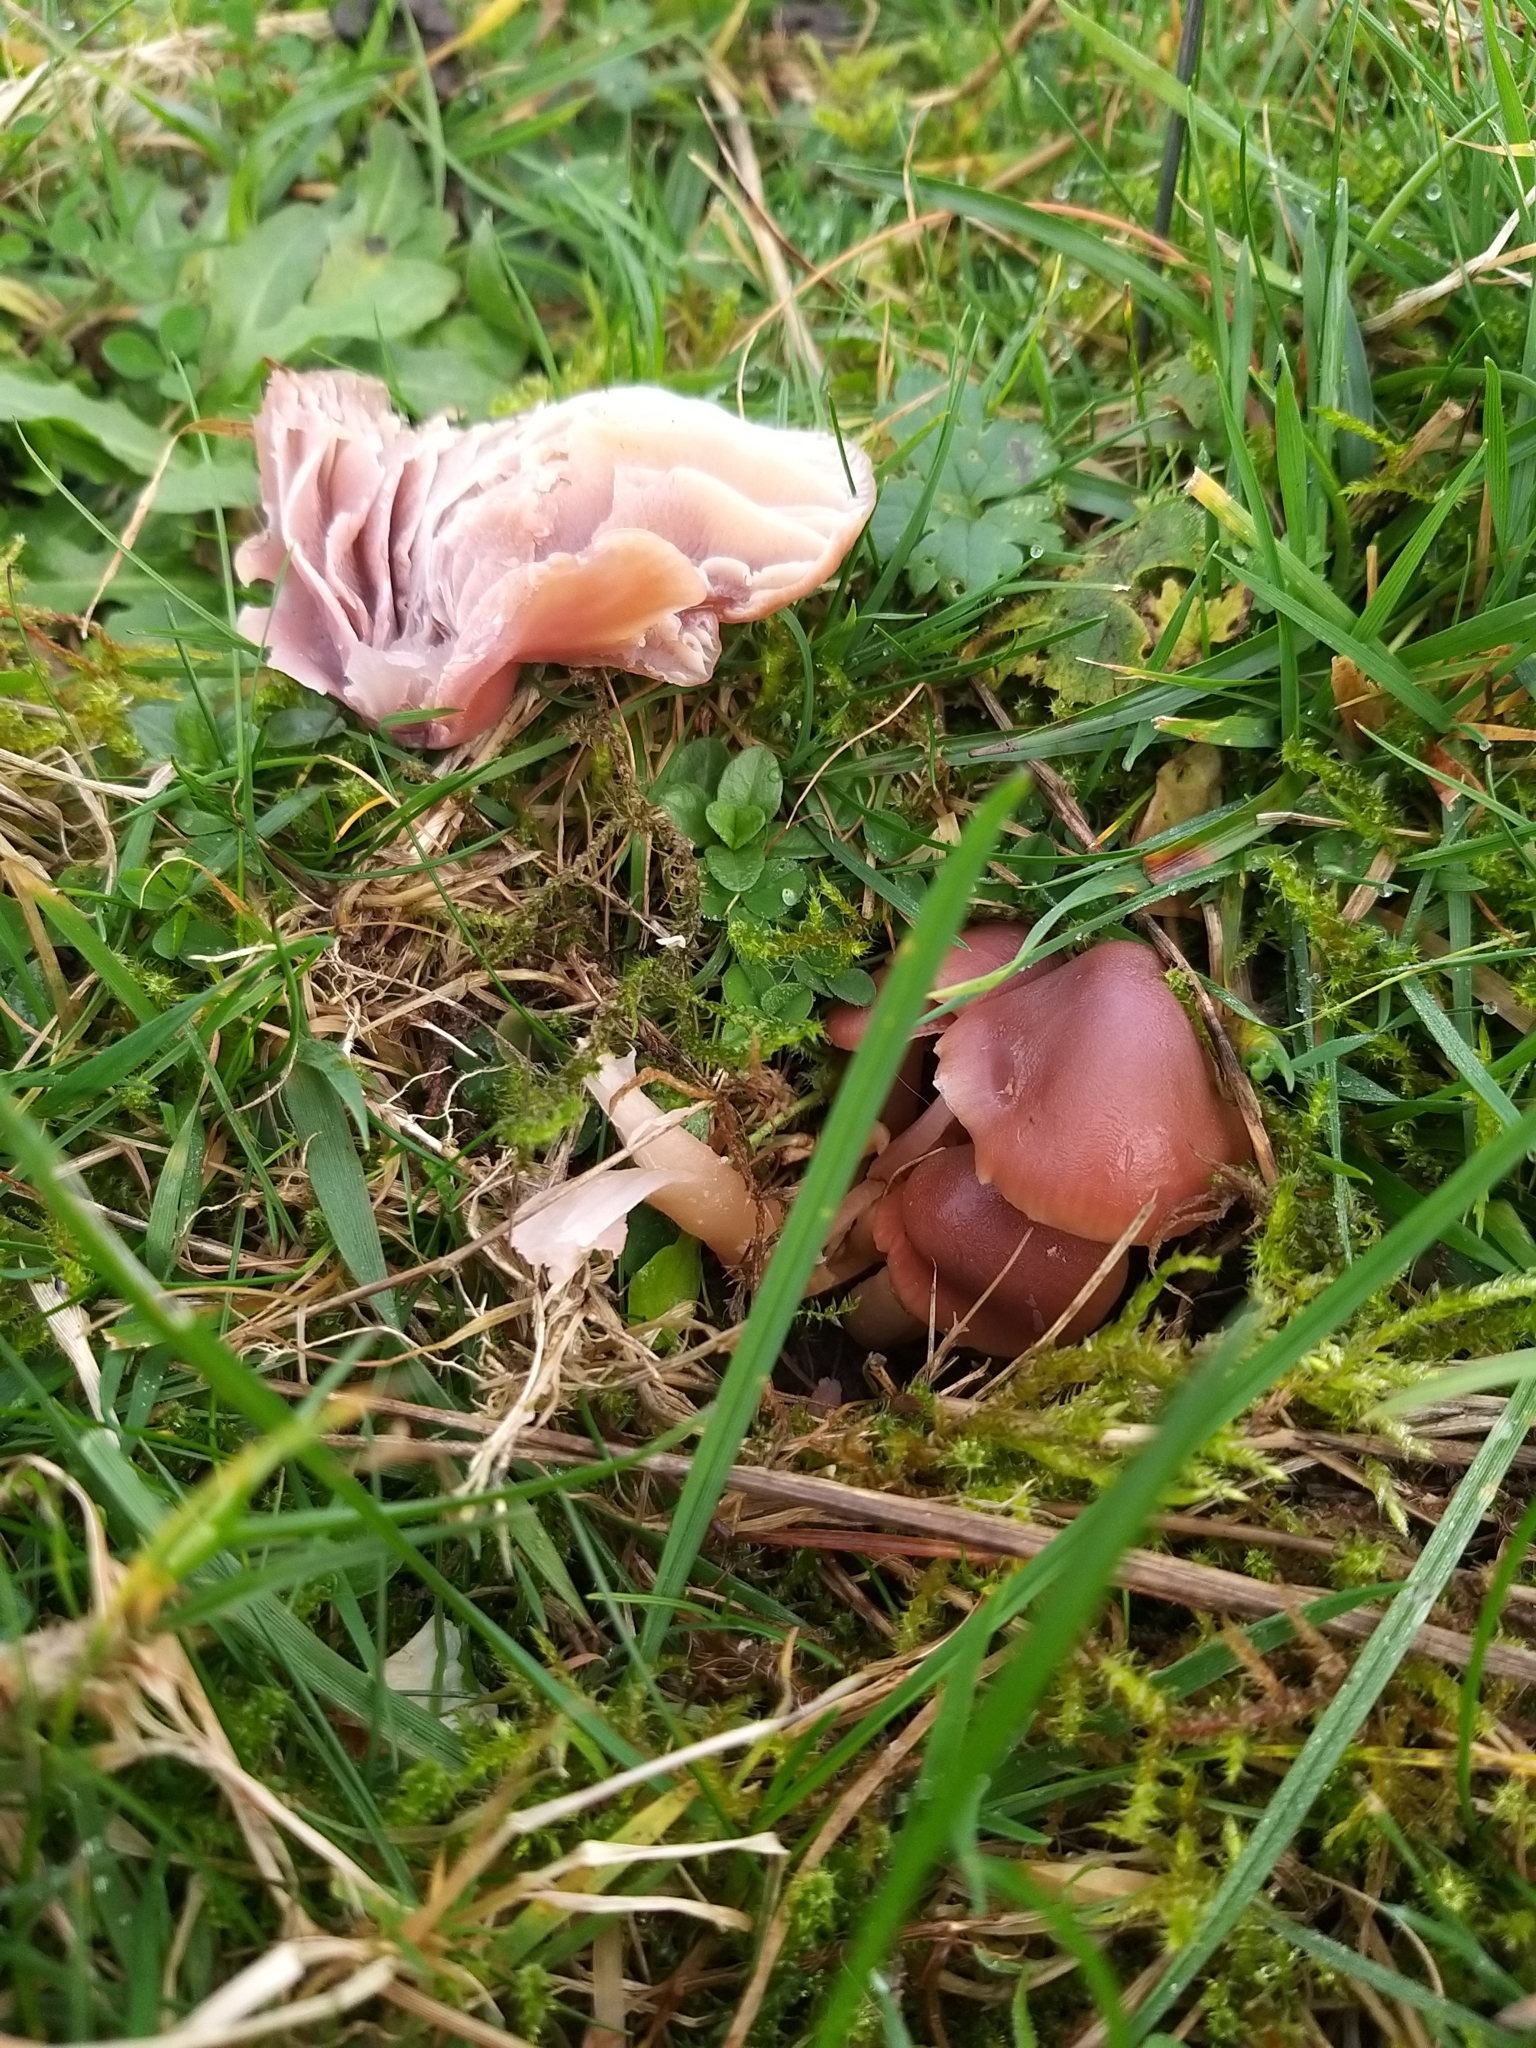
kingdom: Fungi
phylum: Basidiomycota
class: Agaricomycetes
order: Agaricales
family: Hygrophoraceae
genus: Gliophorus
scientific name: Gliophorus reginae
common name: Jubilee waxcap
